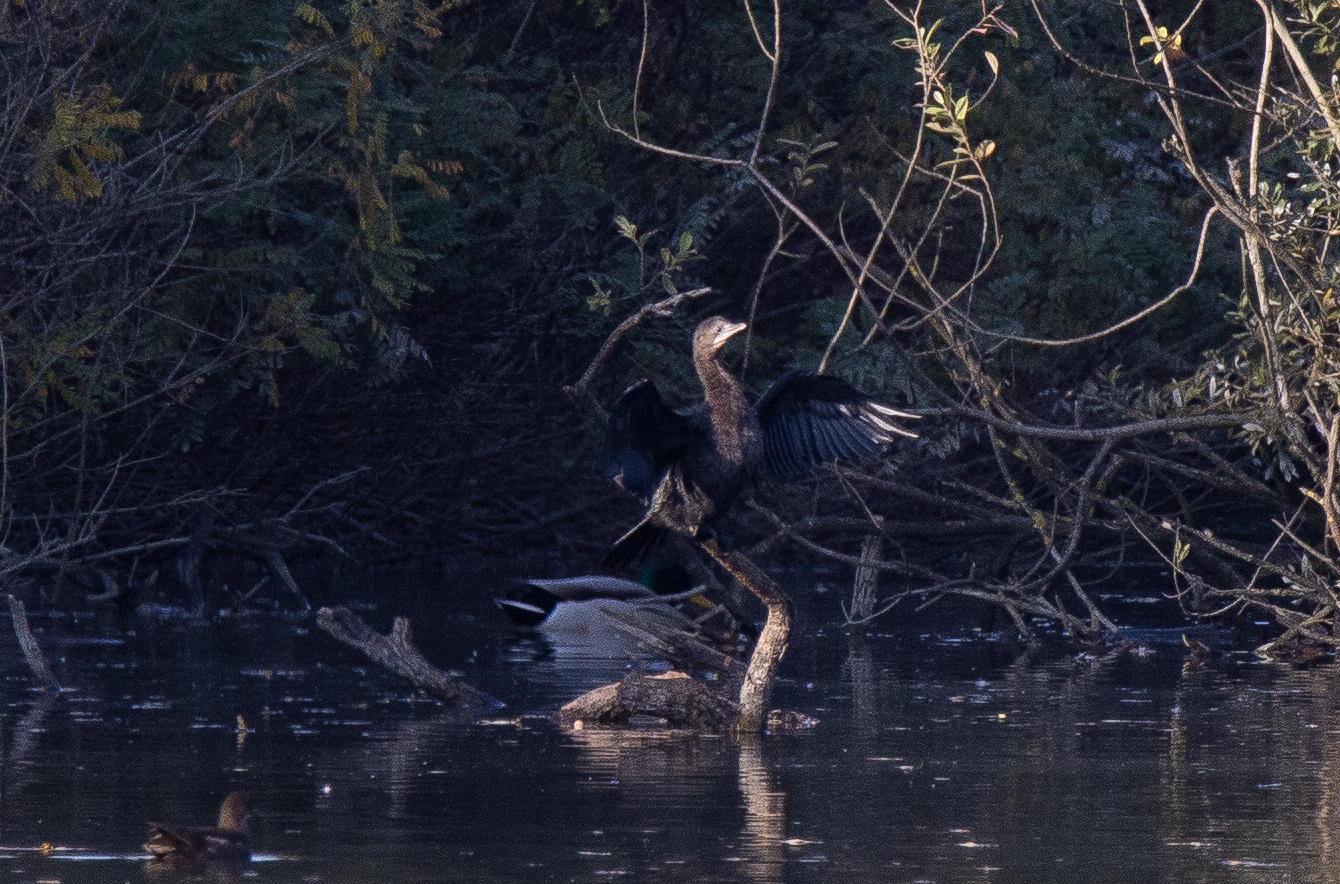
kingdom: Animalia
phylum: Chordata
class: Aves
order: Suliformes
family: Phalacrocoracidae
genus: Microcarbo
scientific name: Microcarbo pygmaeus
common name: Pygmy cormorant
